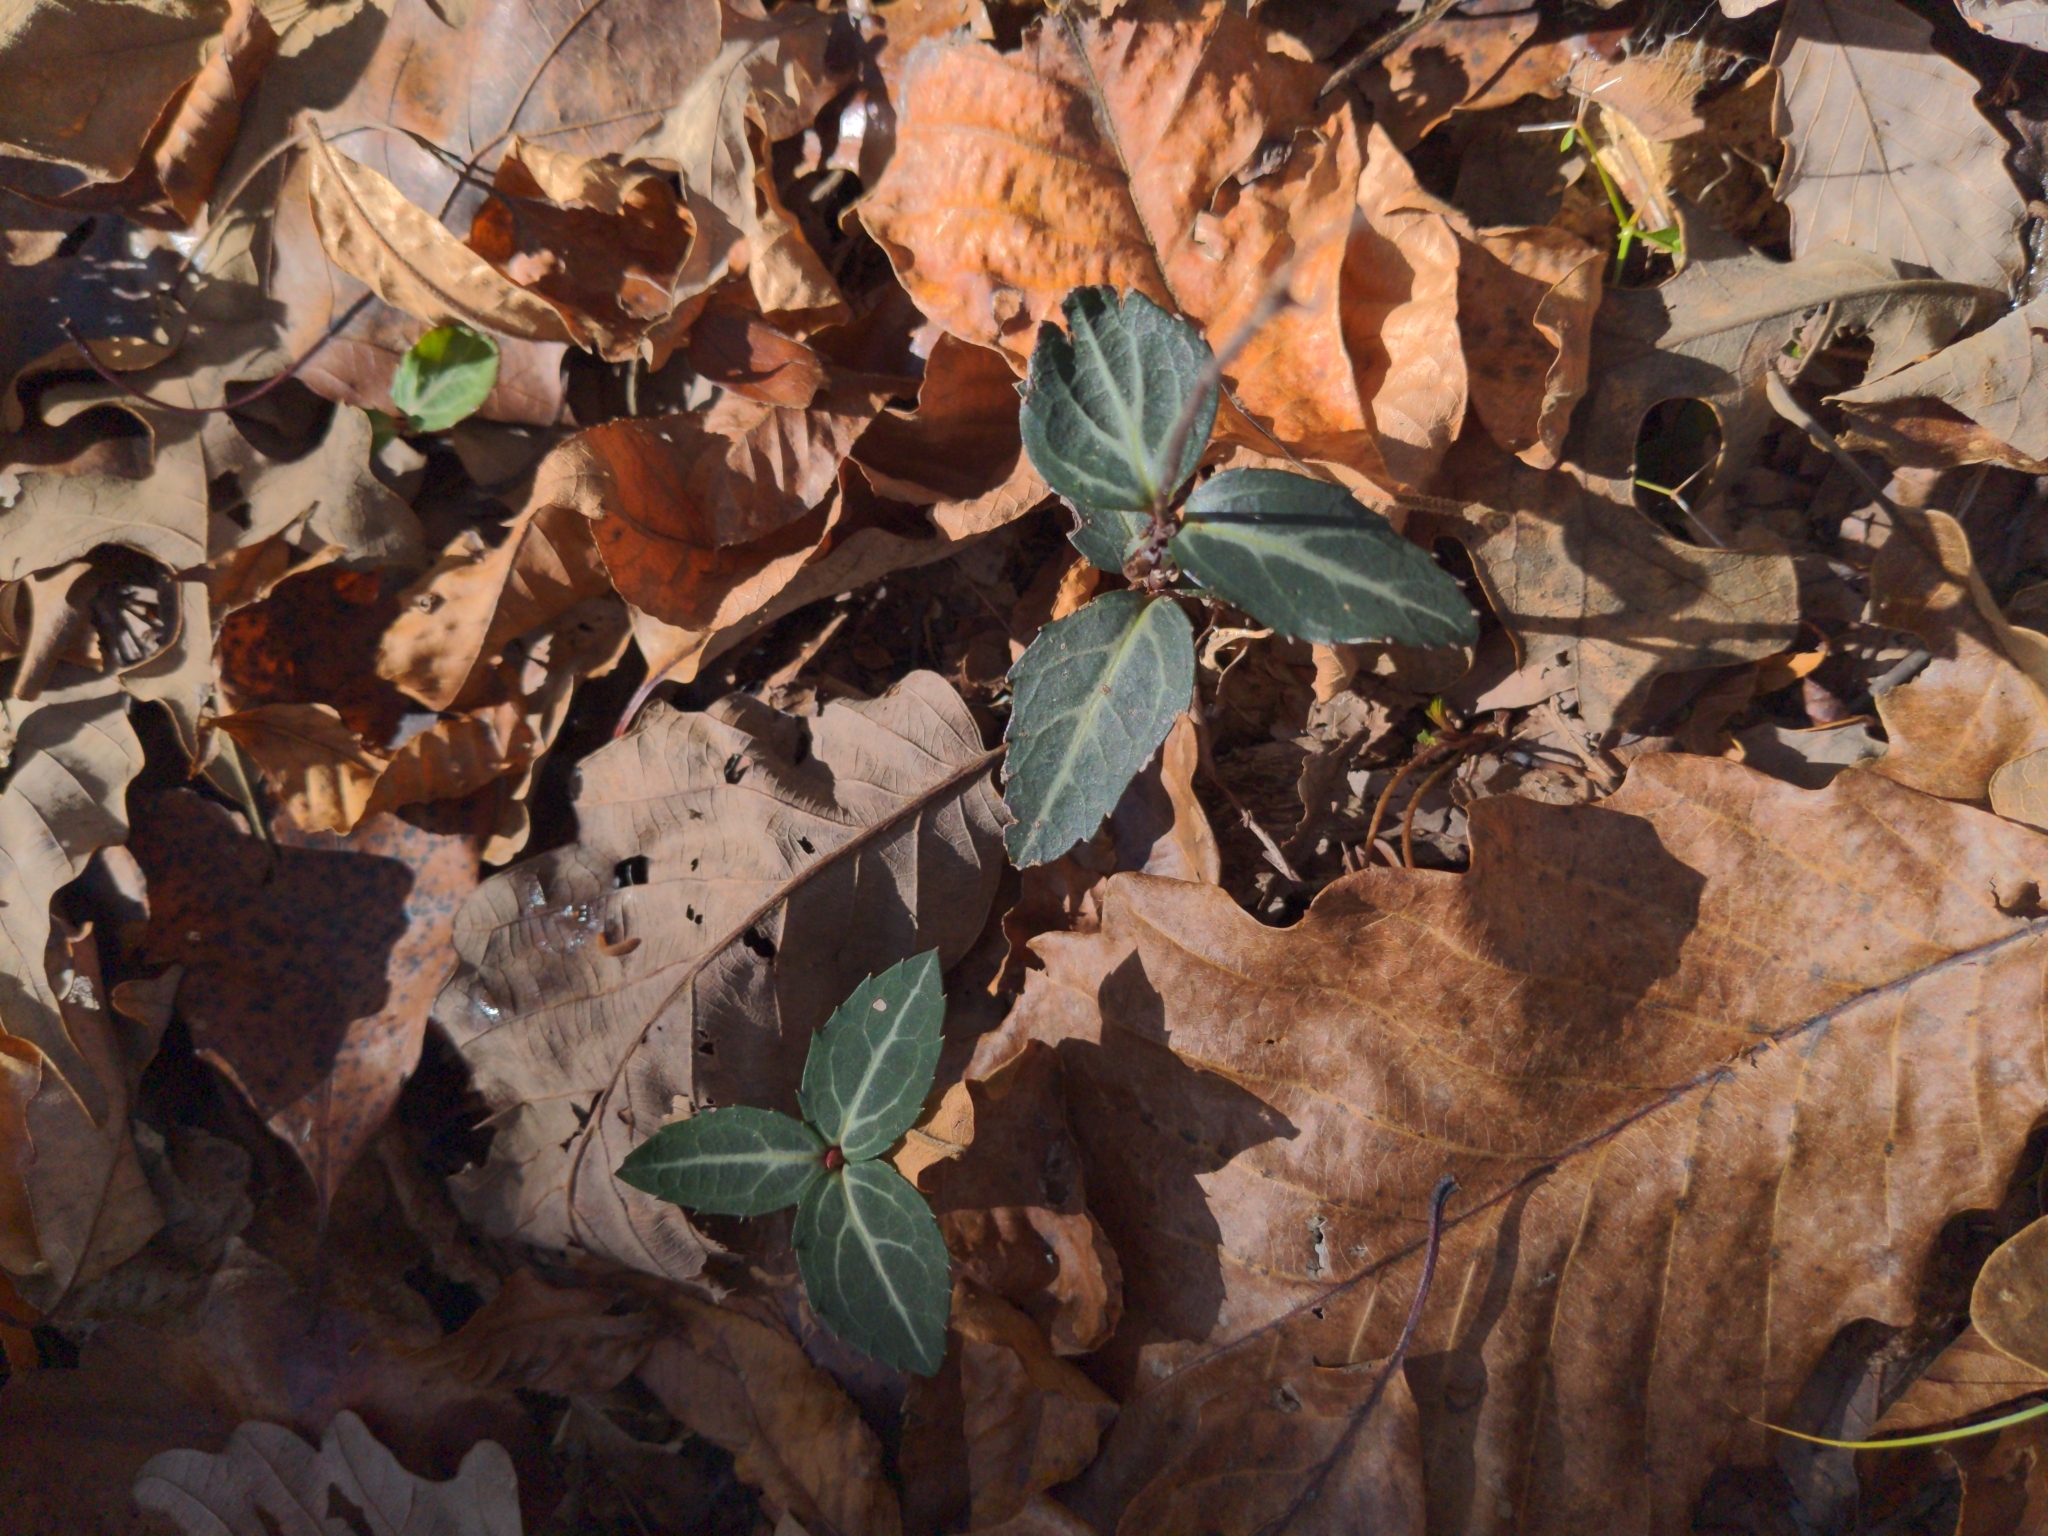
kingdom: Plantae
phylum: Tracheophyta
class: Magnoliopsida
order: Ericales
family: Ericaceae
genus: Chimaphila
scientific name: Chimaphila maculata
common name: Spotted pipsissewa
